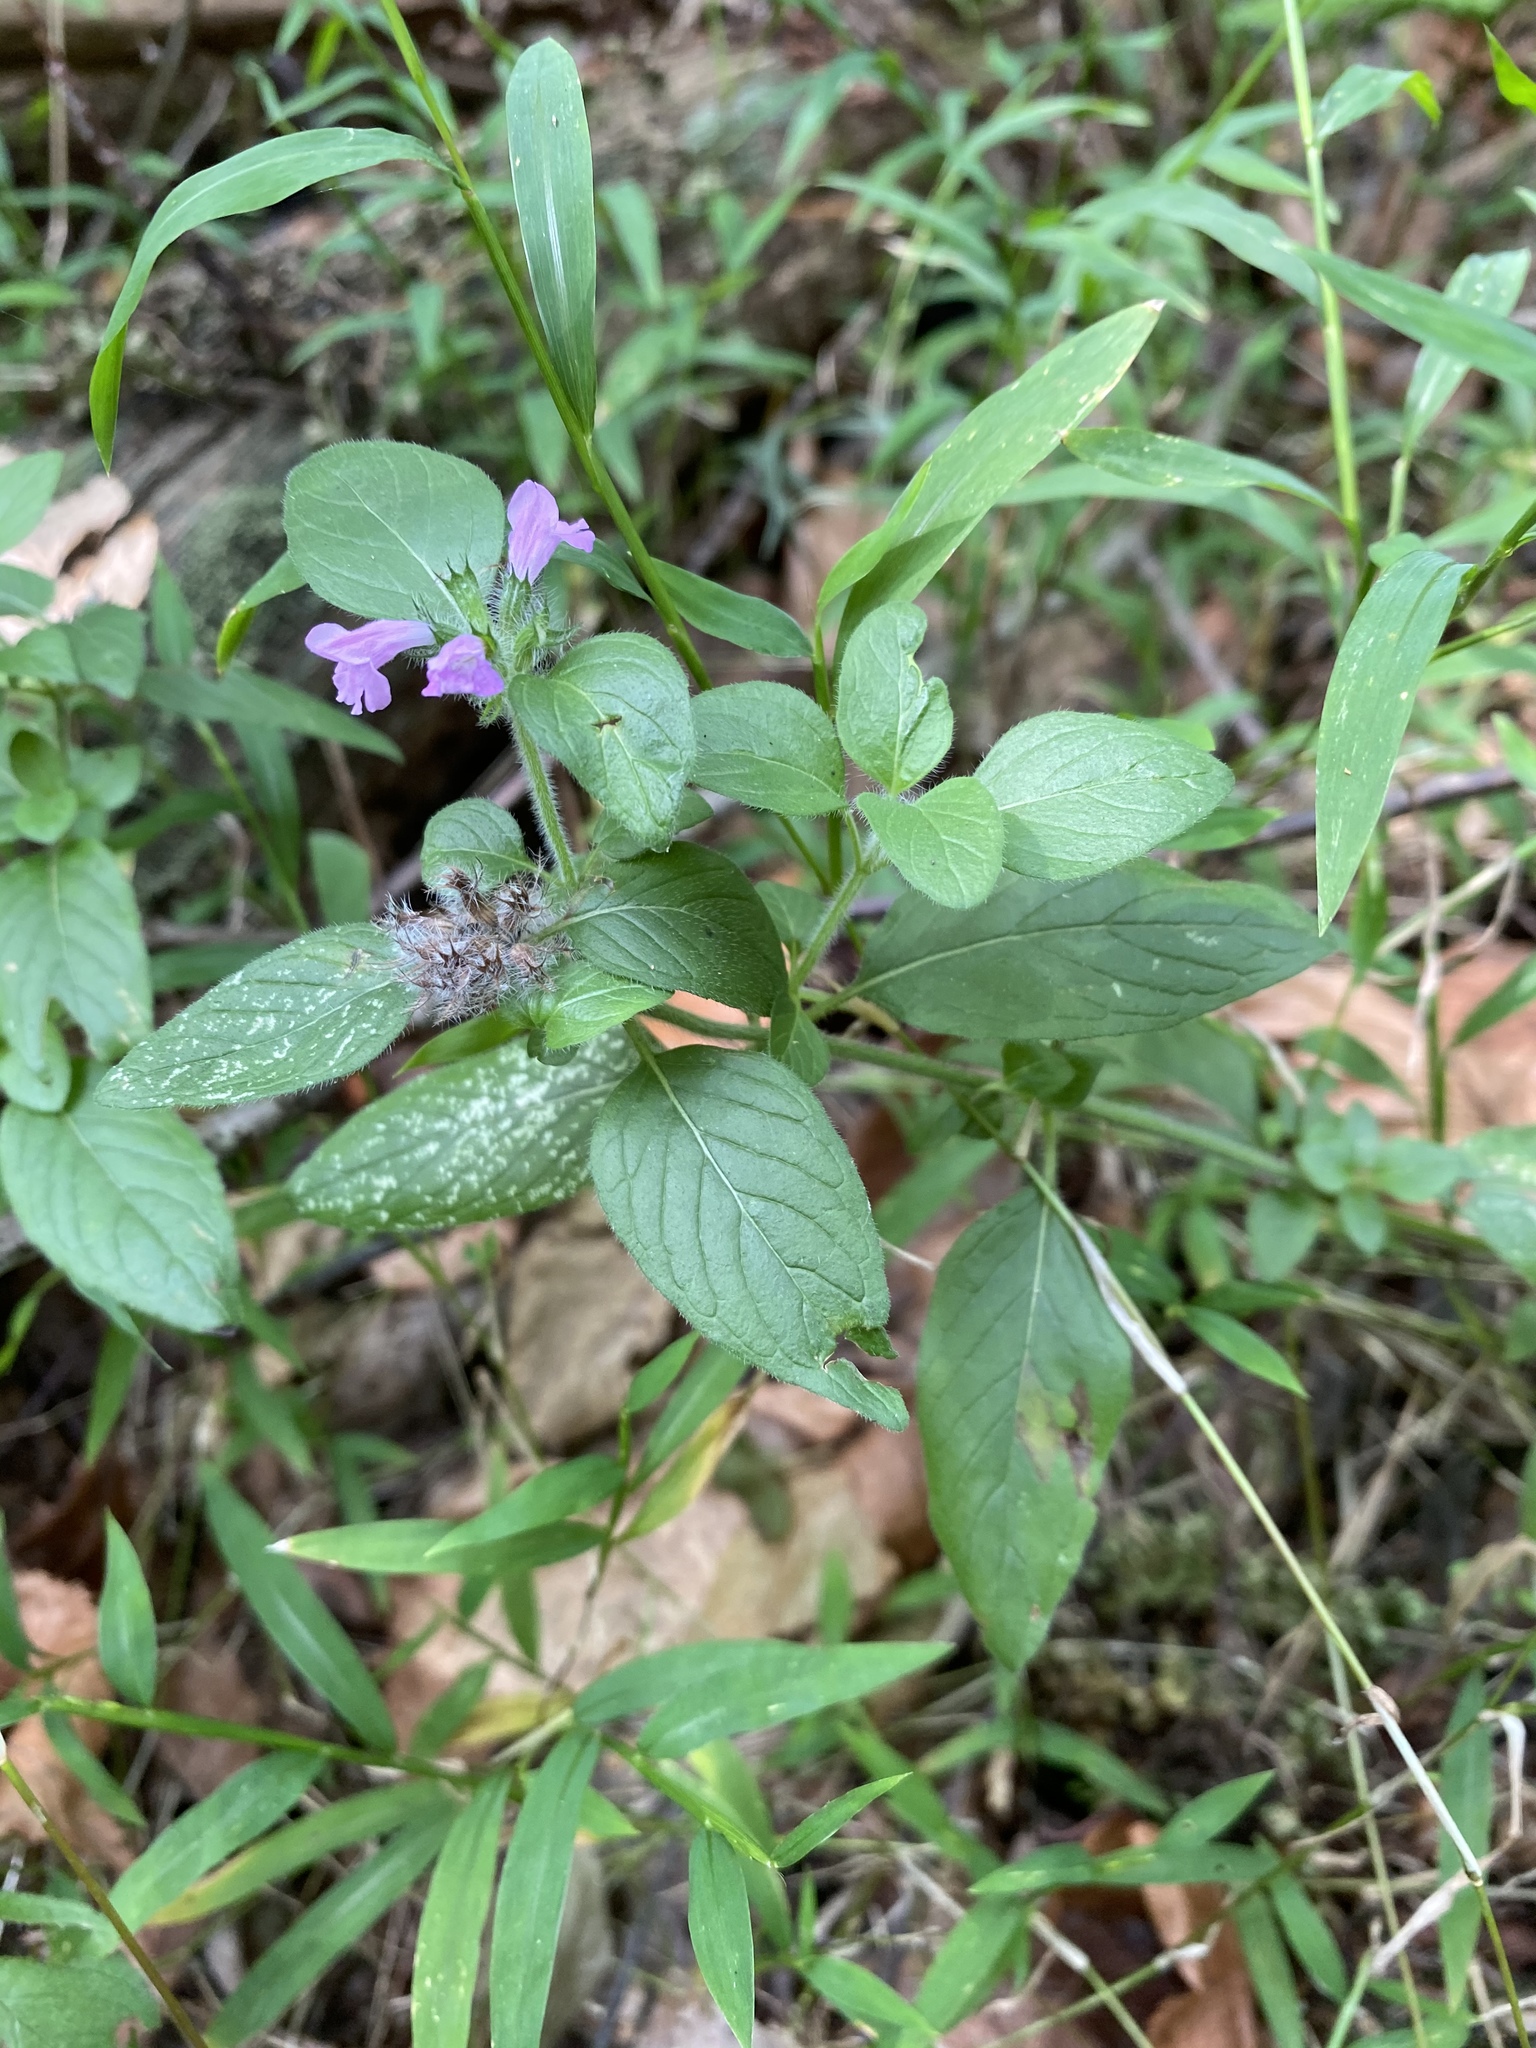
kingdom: Plantae
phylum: Tracheophyta
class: Magnoliopsida
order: Lamiales
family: Lamiaceae
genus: Clinopodium
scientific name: Clinopodium vulgare
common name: Wild basil
